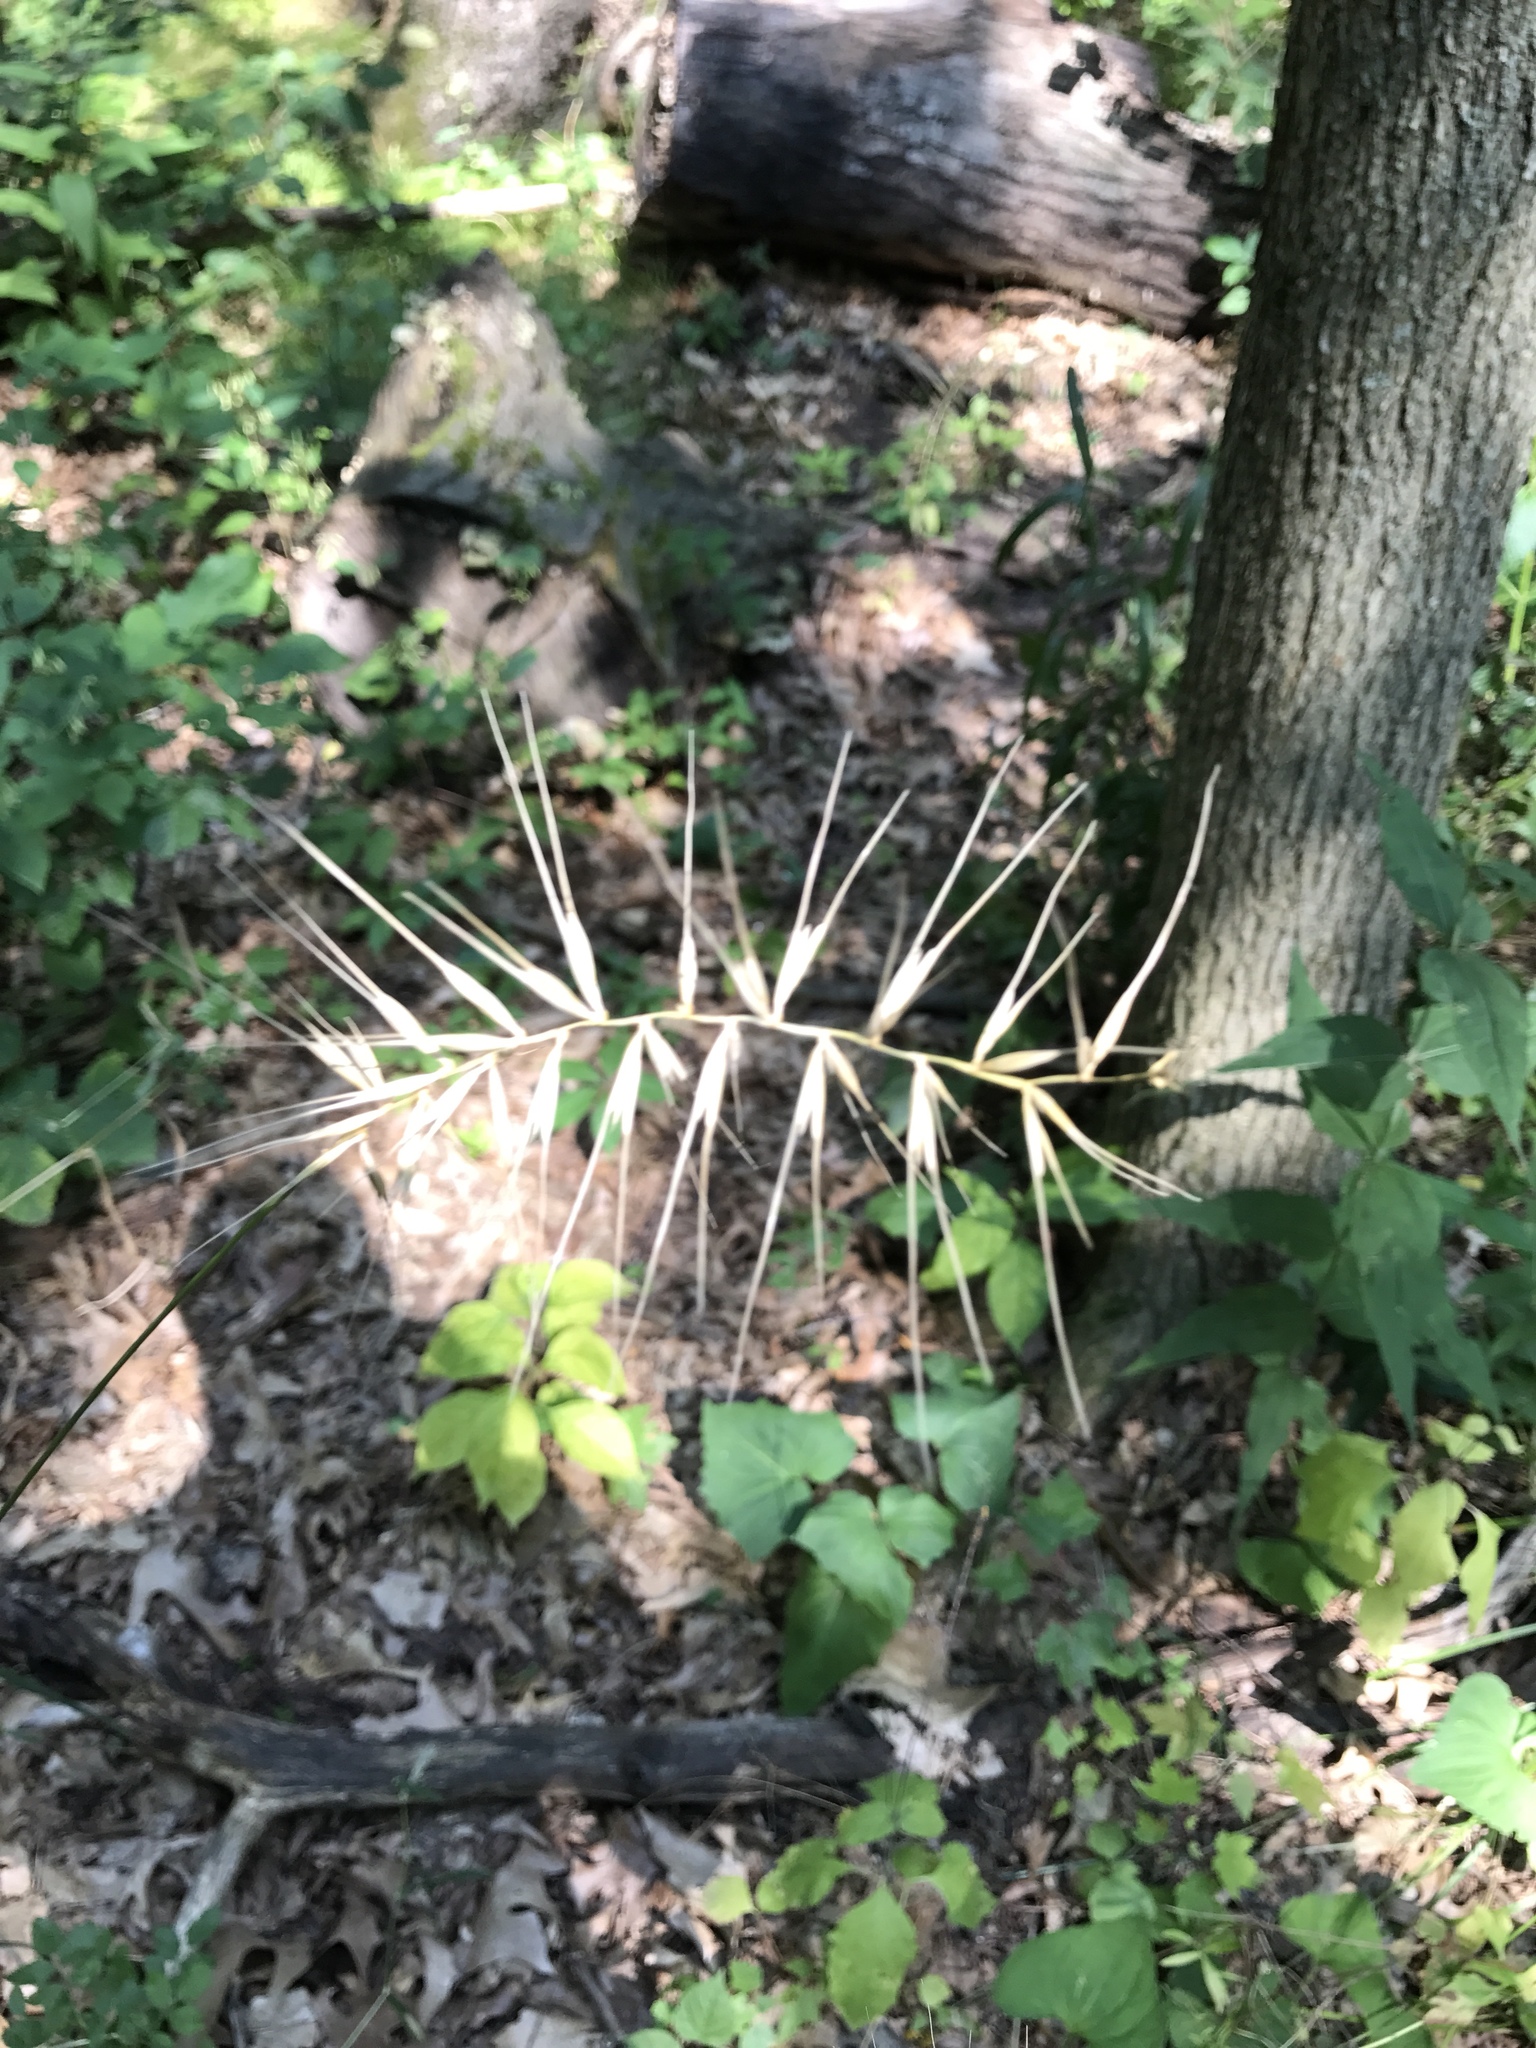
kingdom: Plantae
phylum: Tracheophyta
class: Liliopsida
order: Poales
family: Poaceae
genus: Elymus
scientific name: Elymus hystrix
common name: Bottlebrush grass
